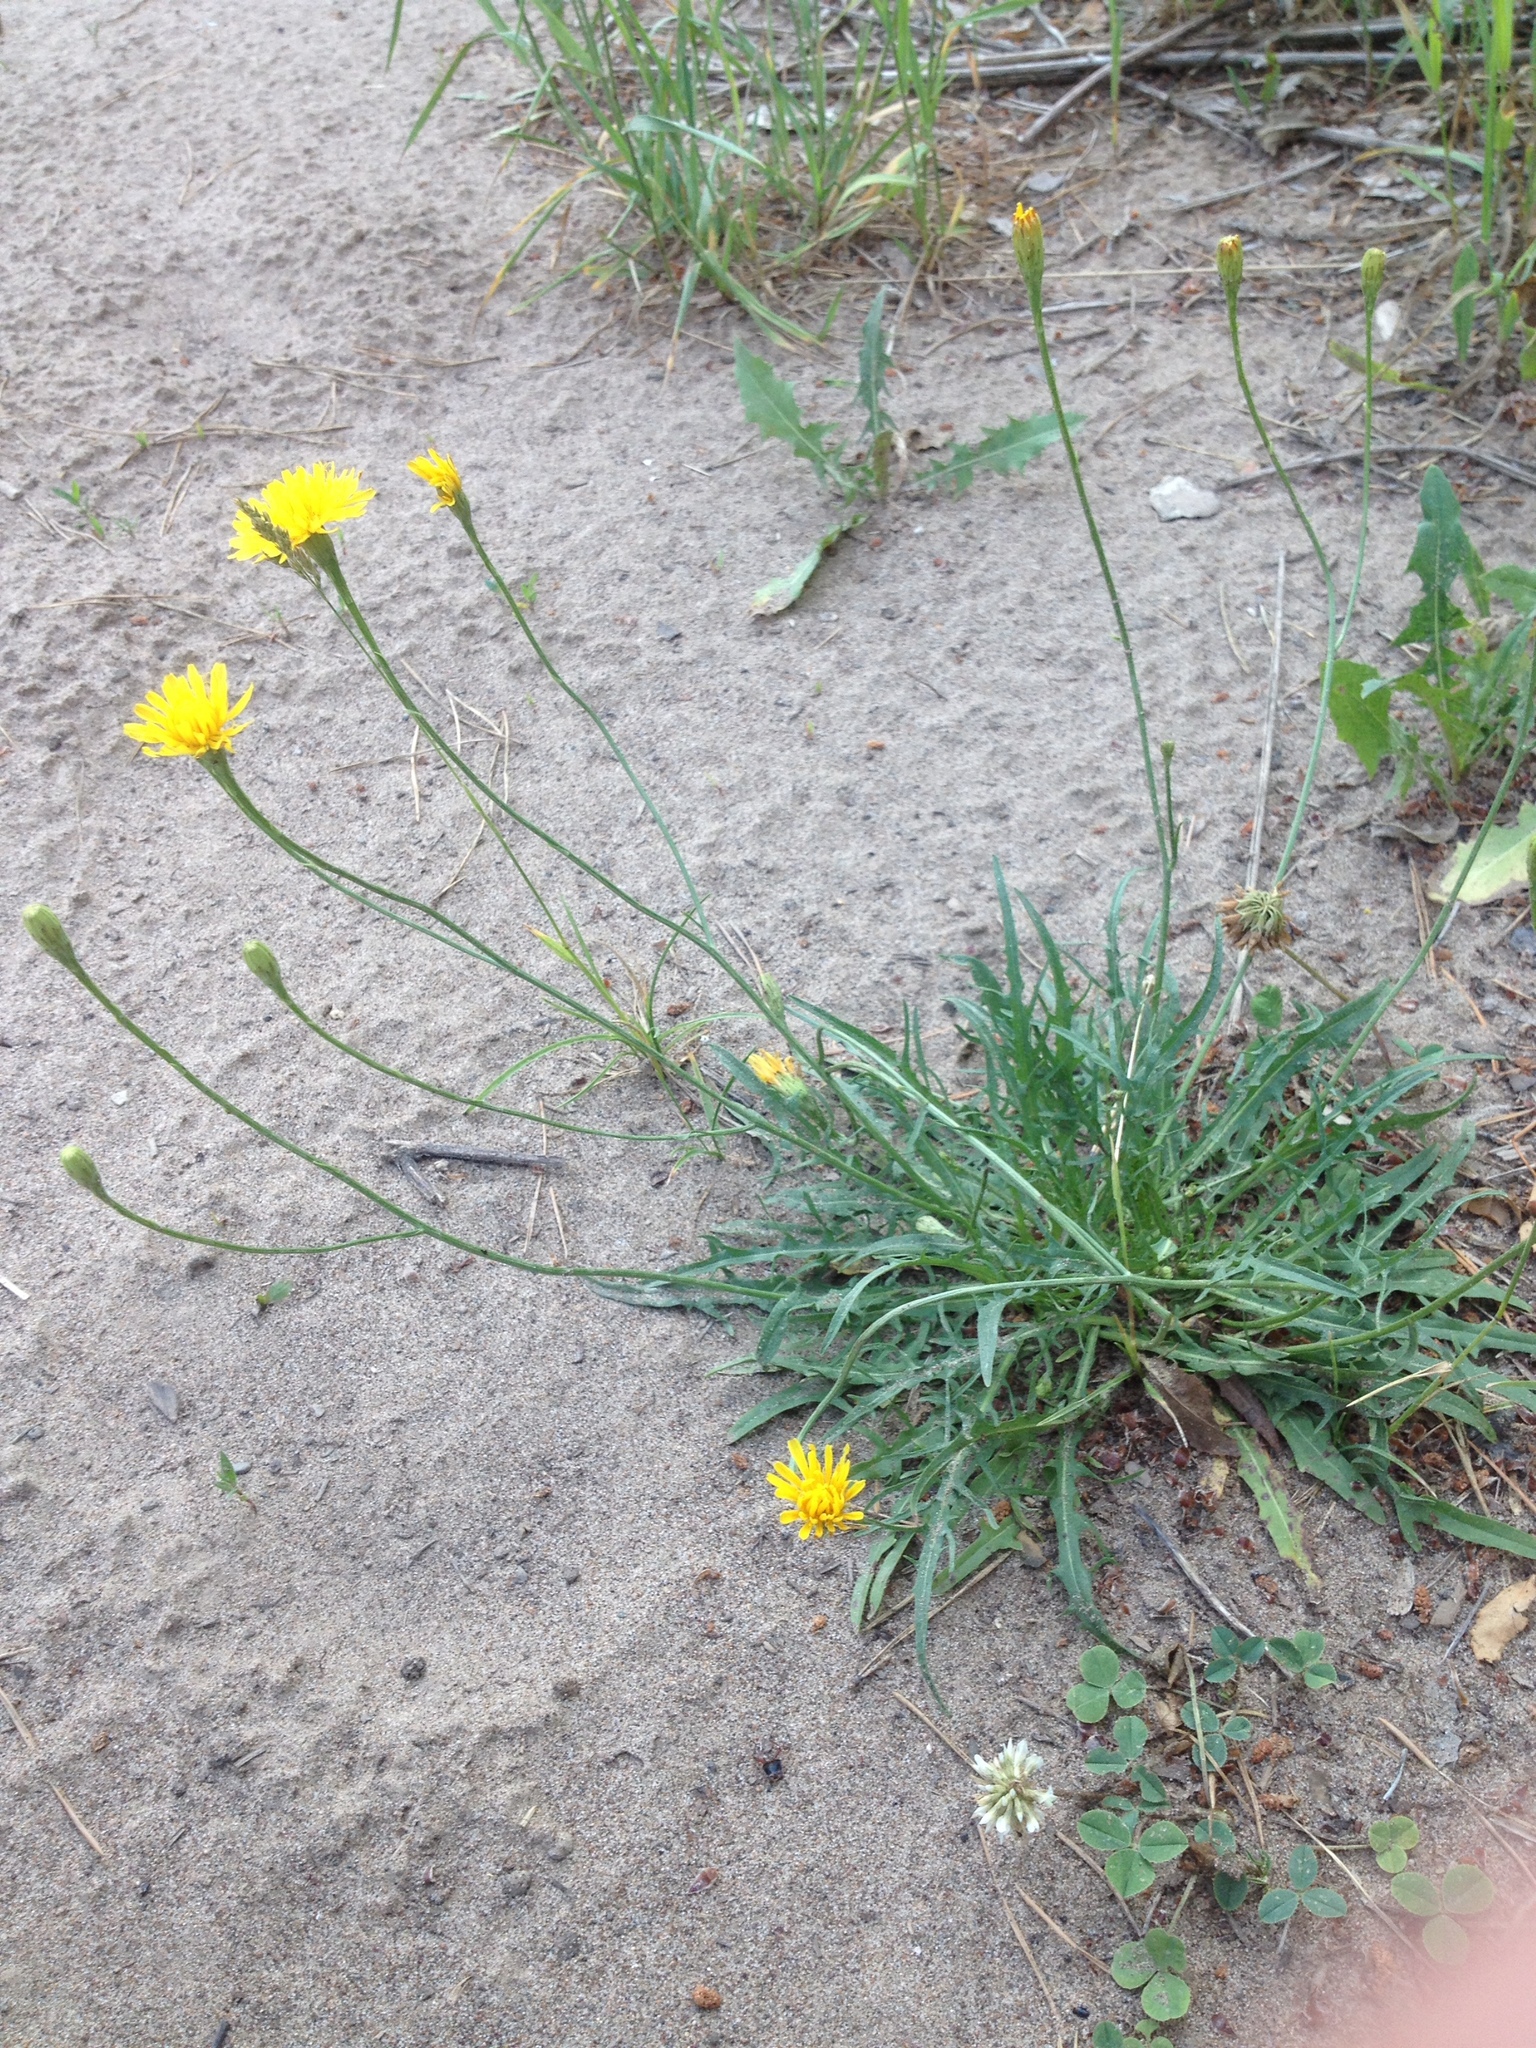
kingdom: Plantae
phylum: Tracheophyta
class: Magnoliopsida
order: Asterales
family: Asteraceae
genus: Scorzoneroides
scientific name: Scorzoneroides autumnalis
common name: Autumn hawkbit
